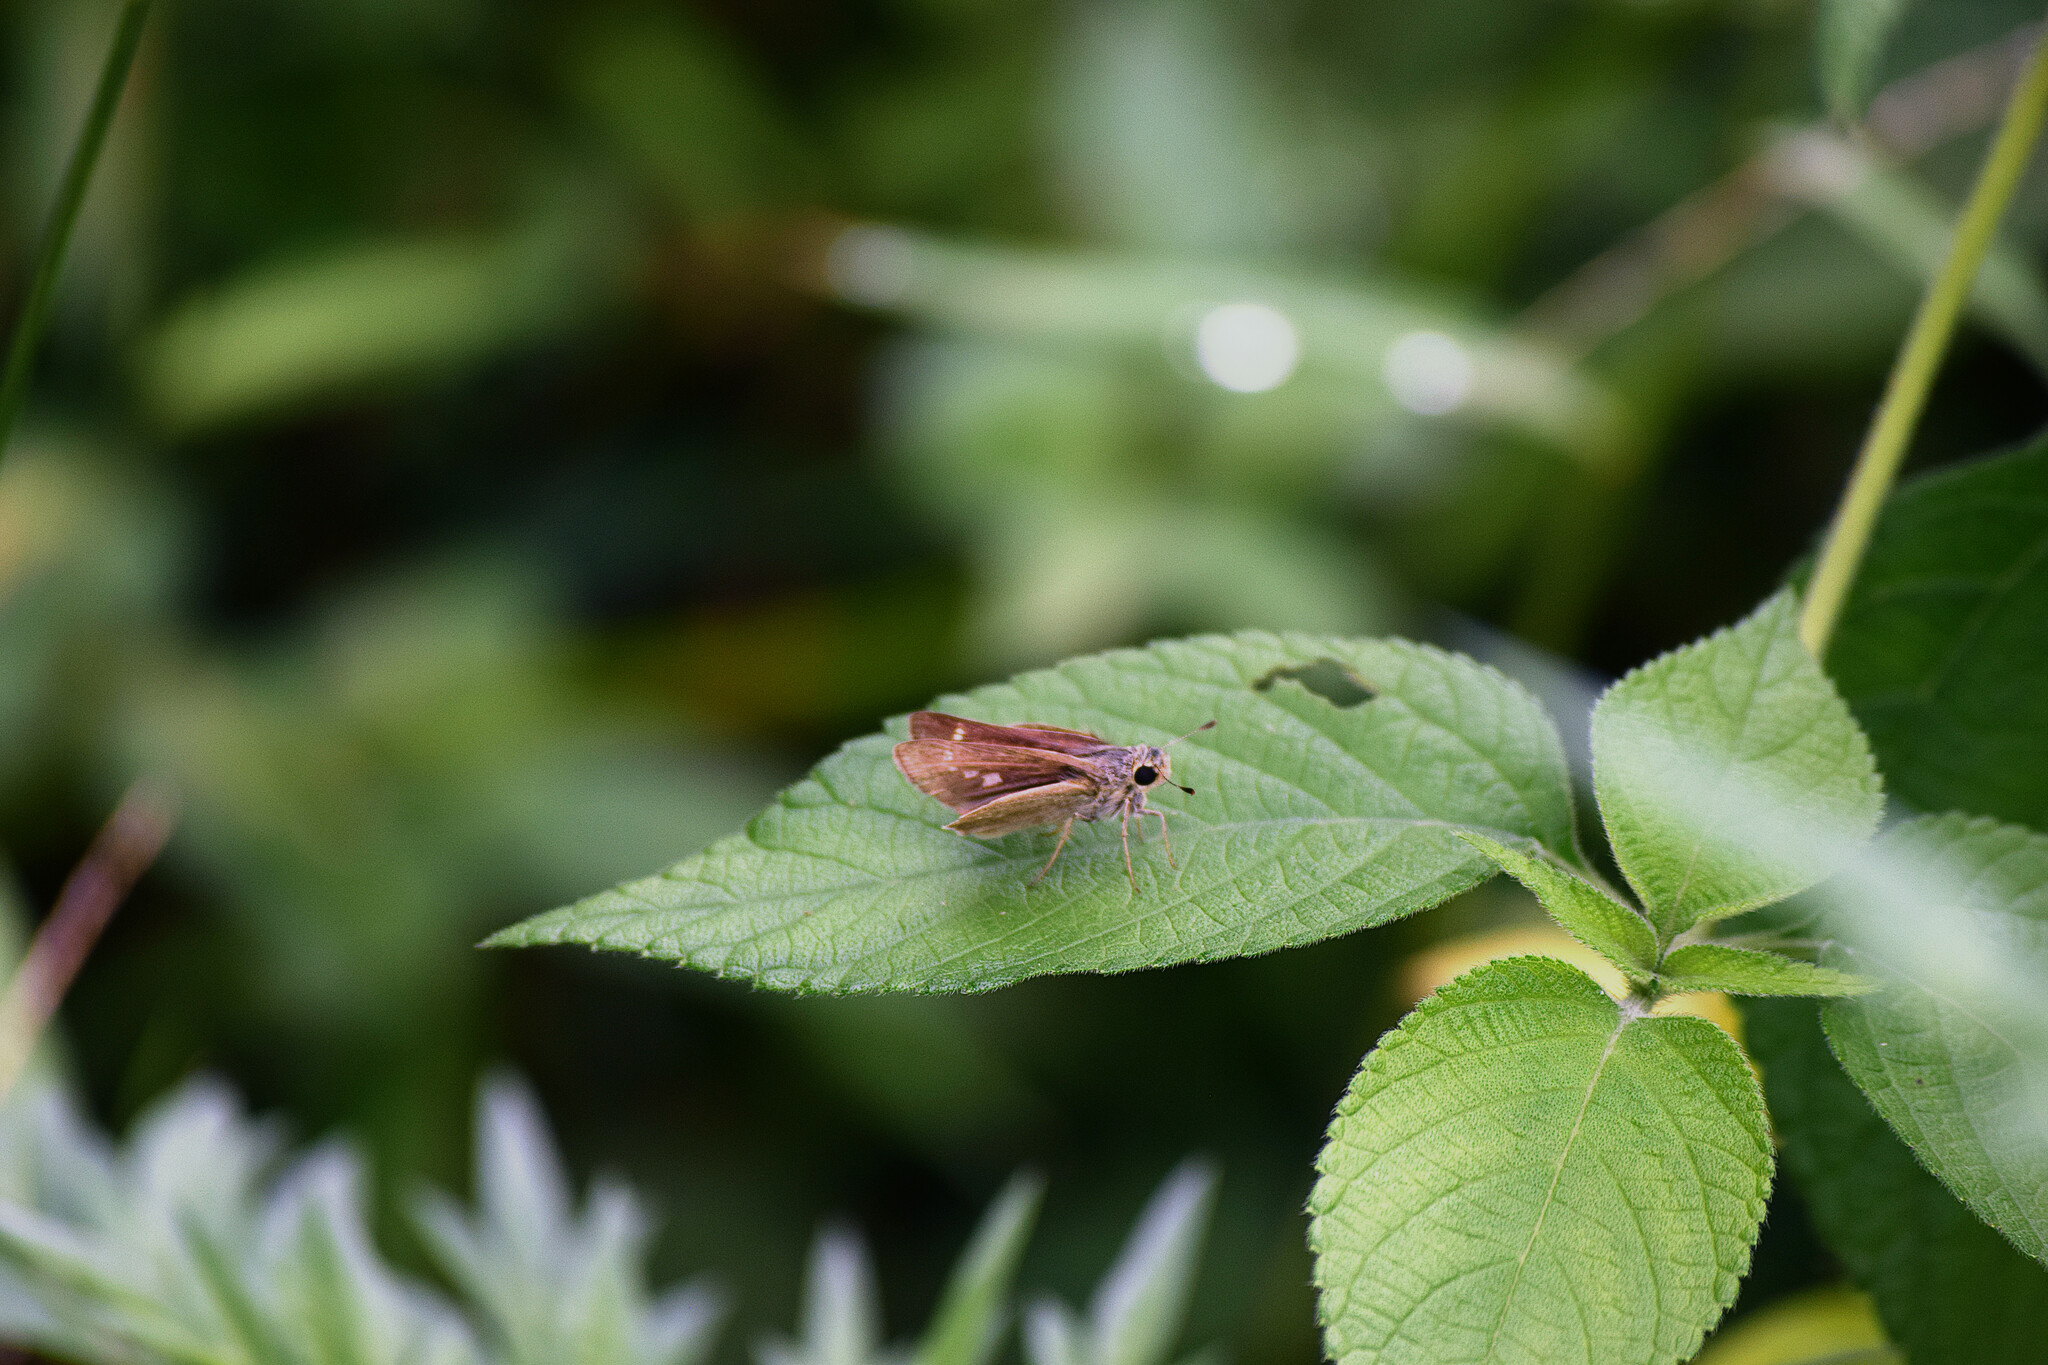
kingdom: Animalia
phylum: Arthropoda
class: Insecta
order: Lepidoptera
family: Hesperiidae
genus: Parnara
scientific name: Parnara naso
